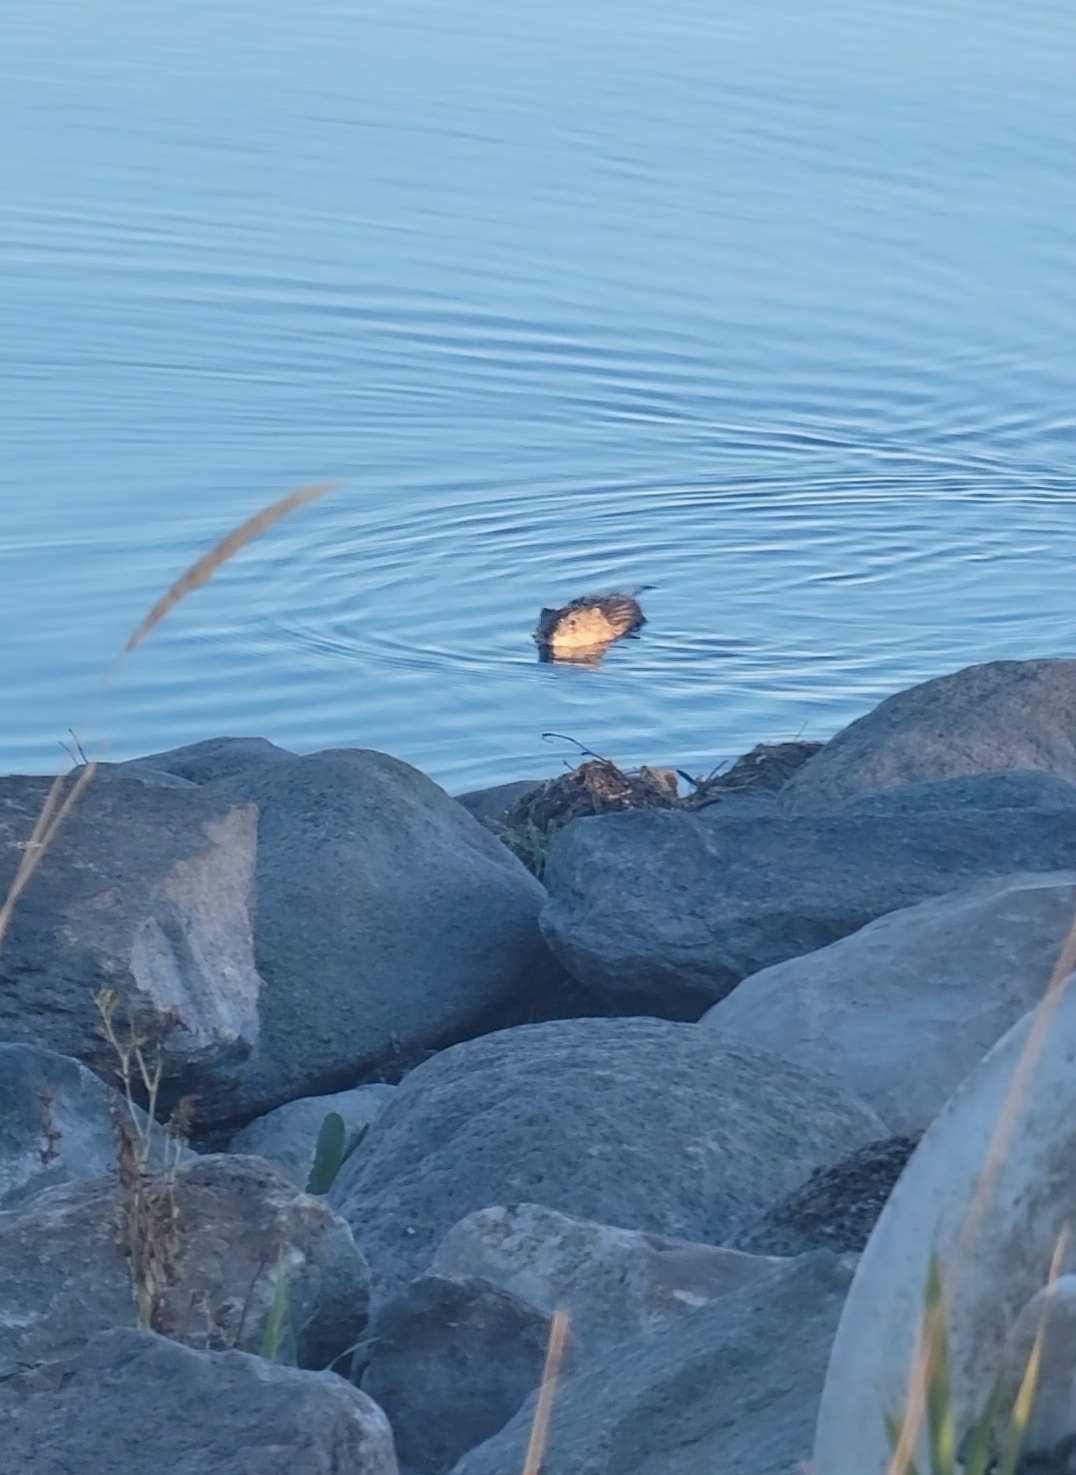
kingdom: Animalia
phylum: Chordata
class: Mammalia
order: Rodentia
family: Cricetidae
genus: Ondatra
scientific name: Ondatra zibethicus
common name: Muskrat
